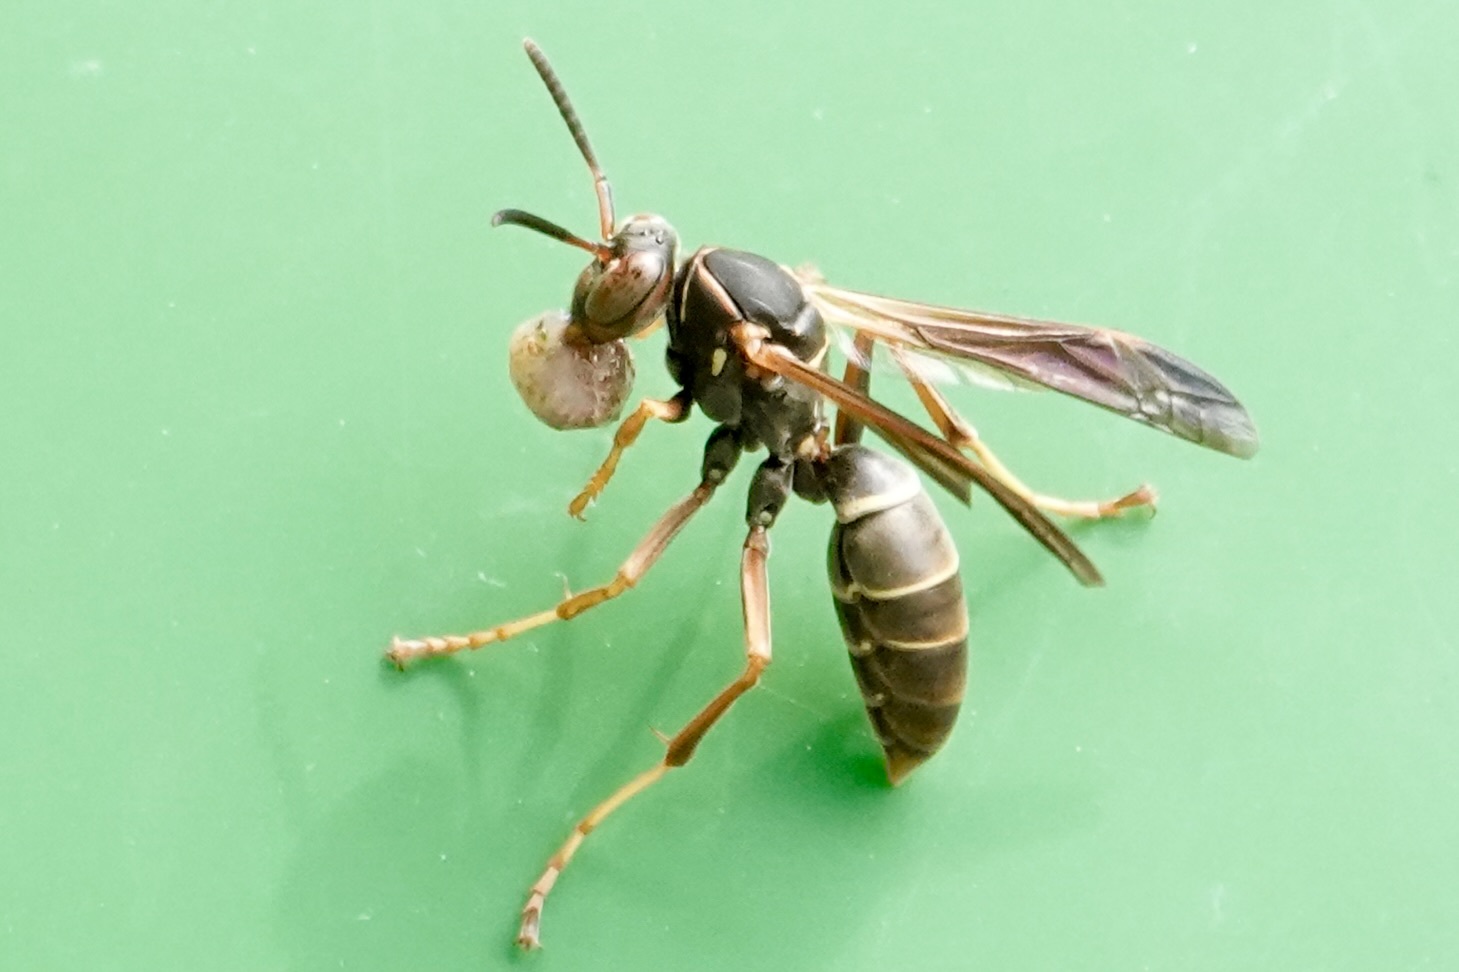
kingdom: Animalia
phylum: Arthropoda
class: Insecta
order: Hymenoptera
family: Eumenidae
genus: Polistes
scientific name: Polistes fuscatus
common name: Dark paper wasp
